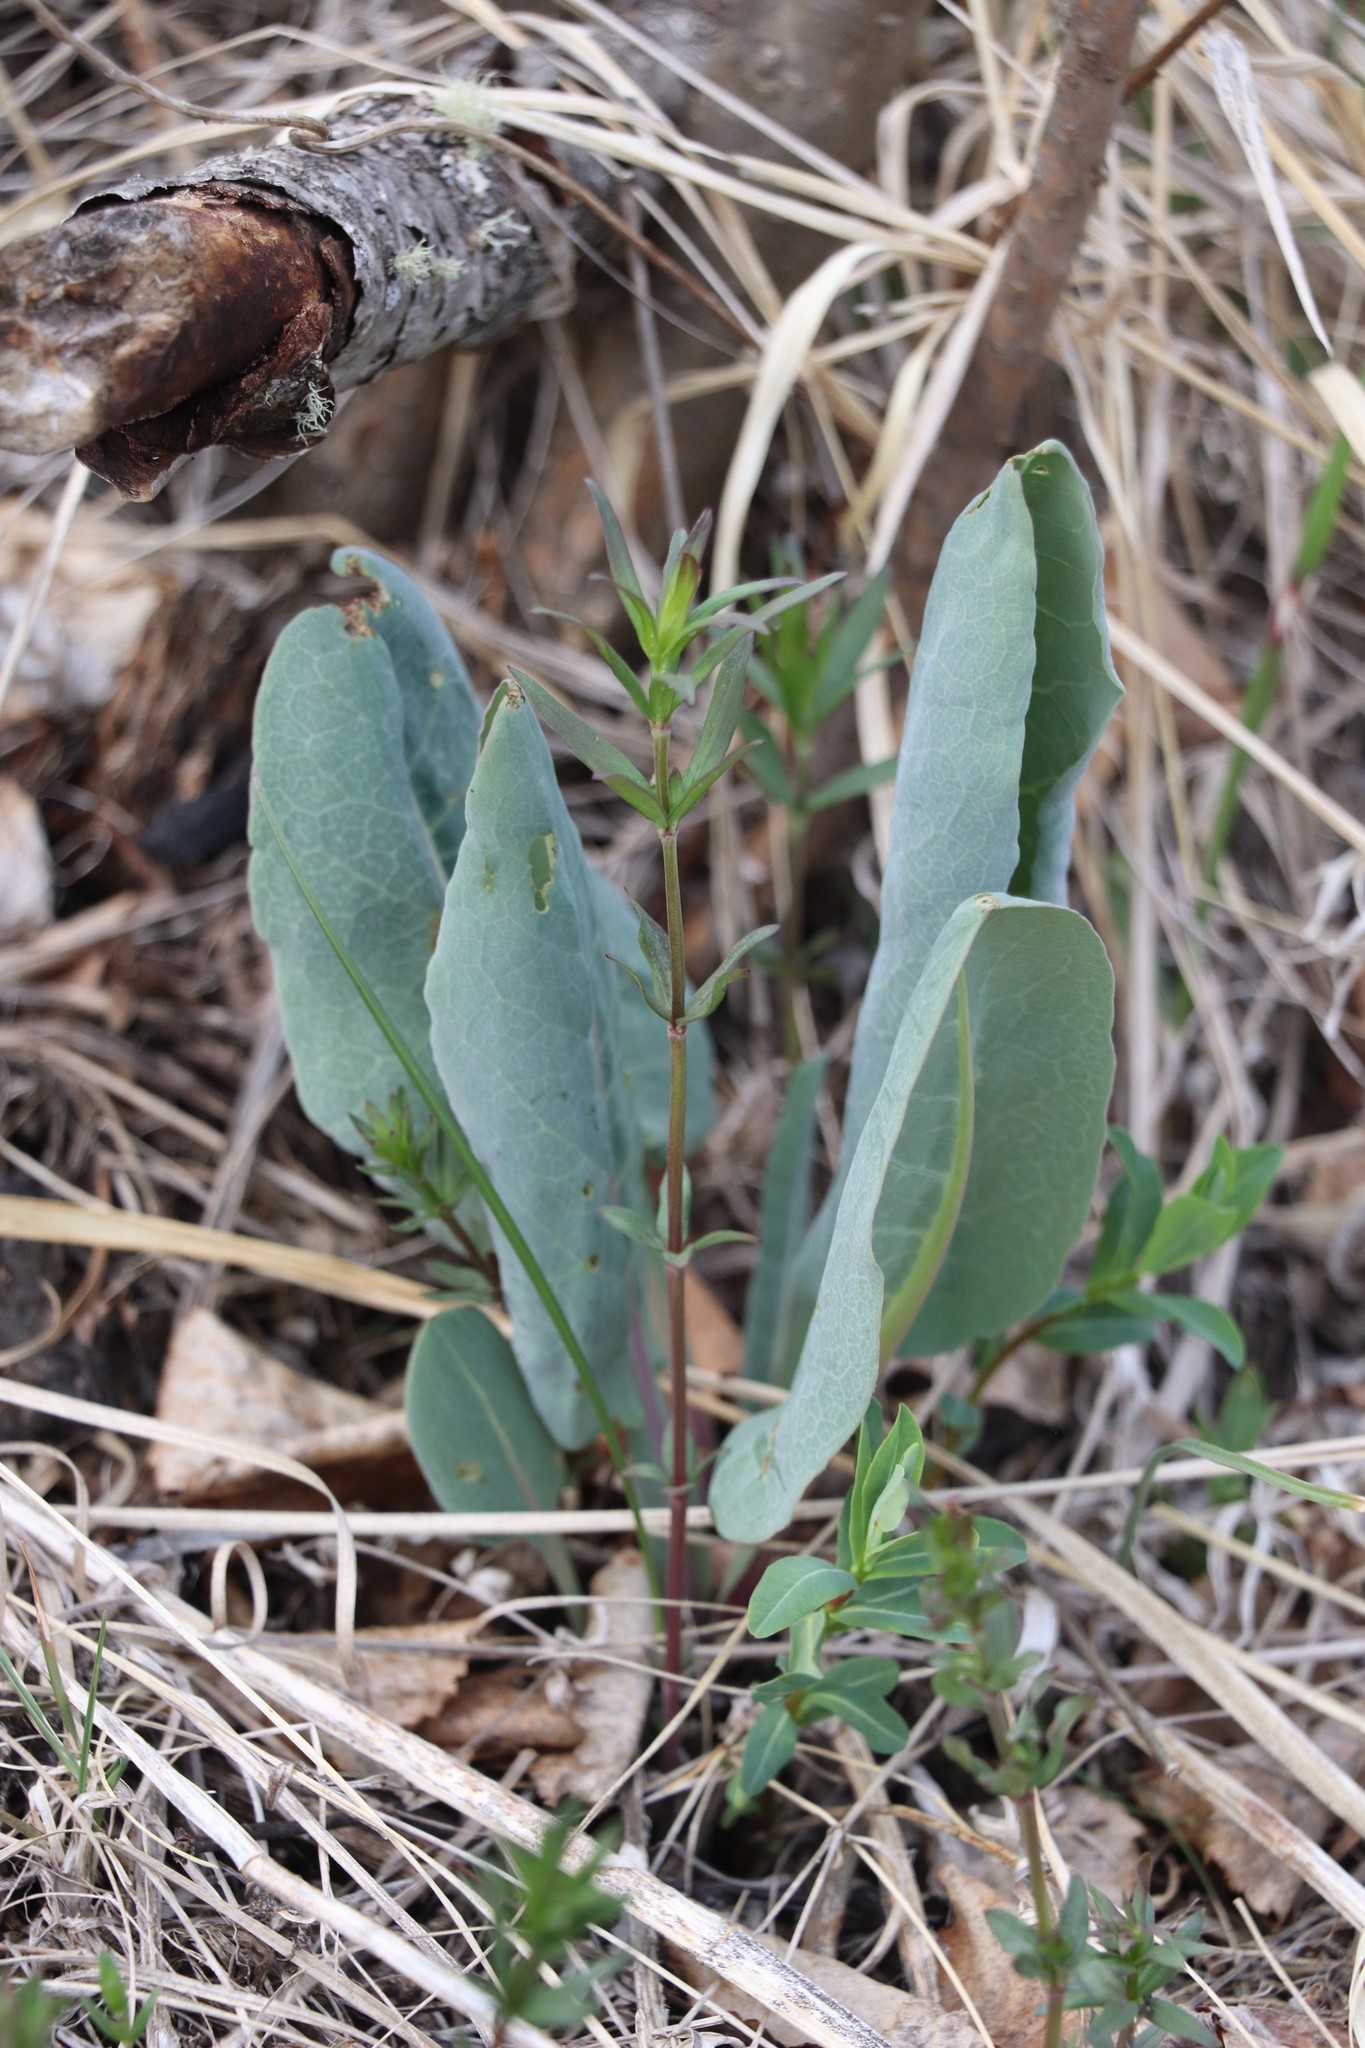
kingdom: Plantae
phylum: Tracheophyta
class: Liliopsida
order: Asparagales
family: Amaryllidaceae
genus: Allium
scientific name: Allium nutans
